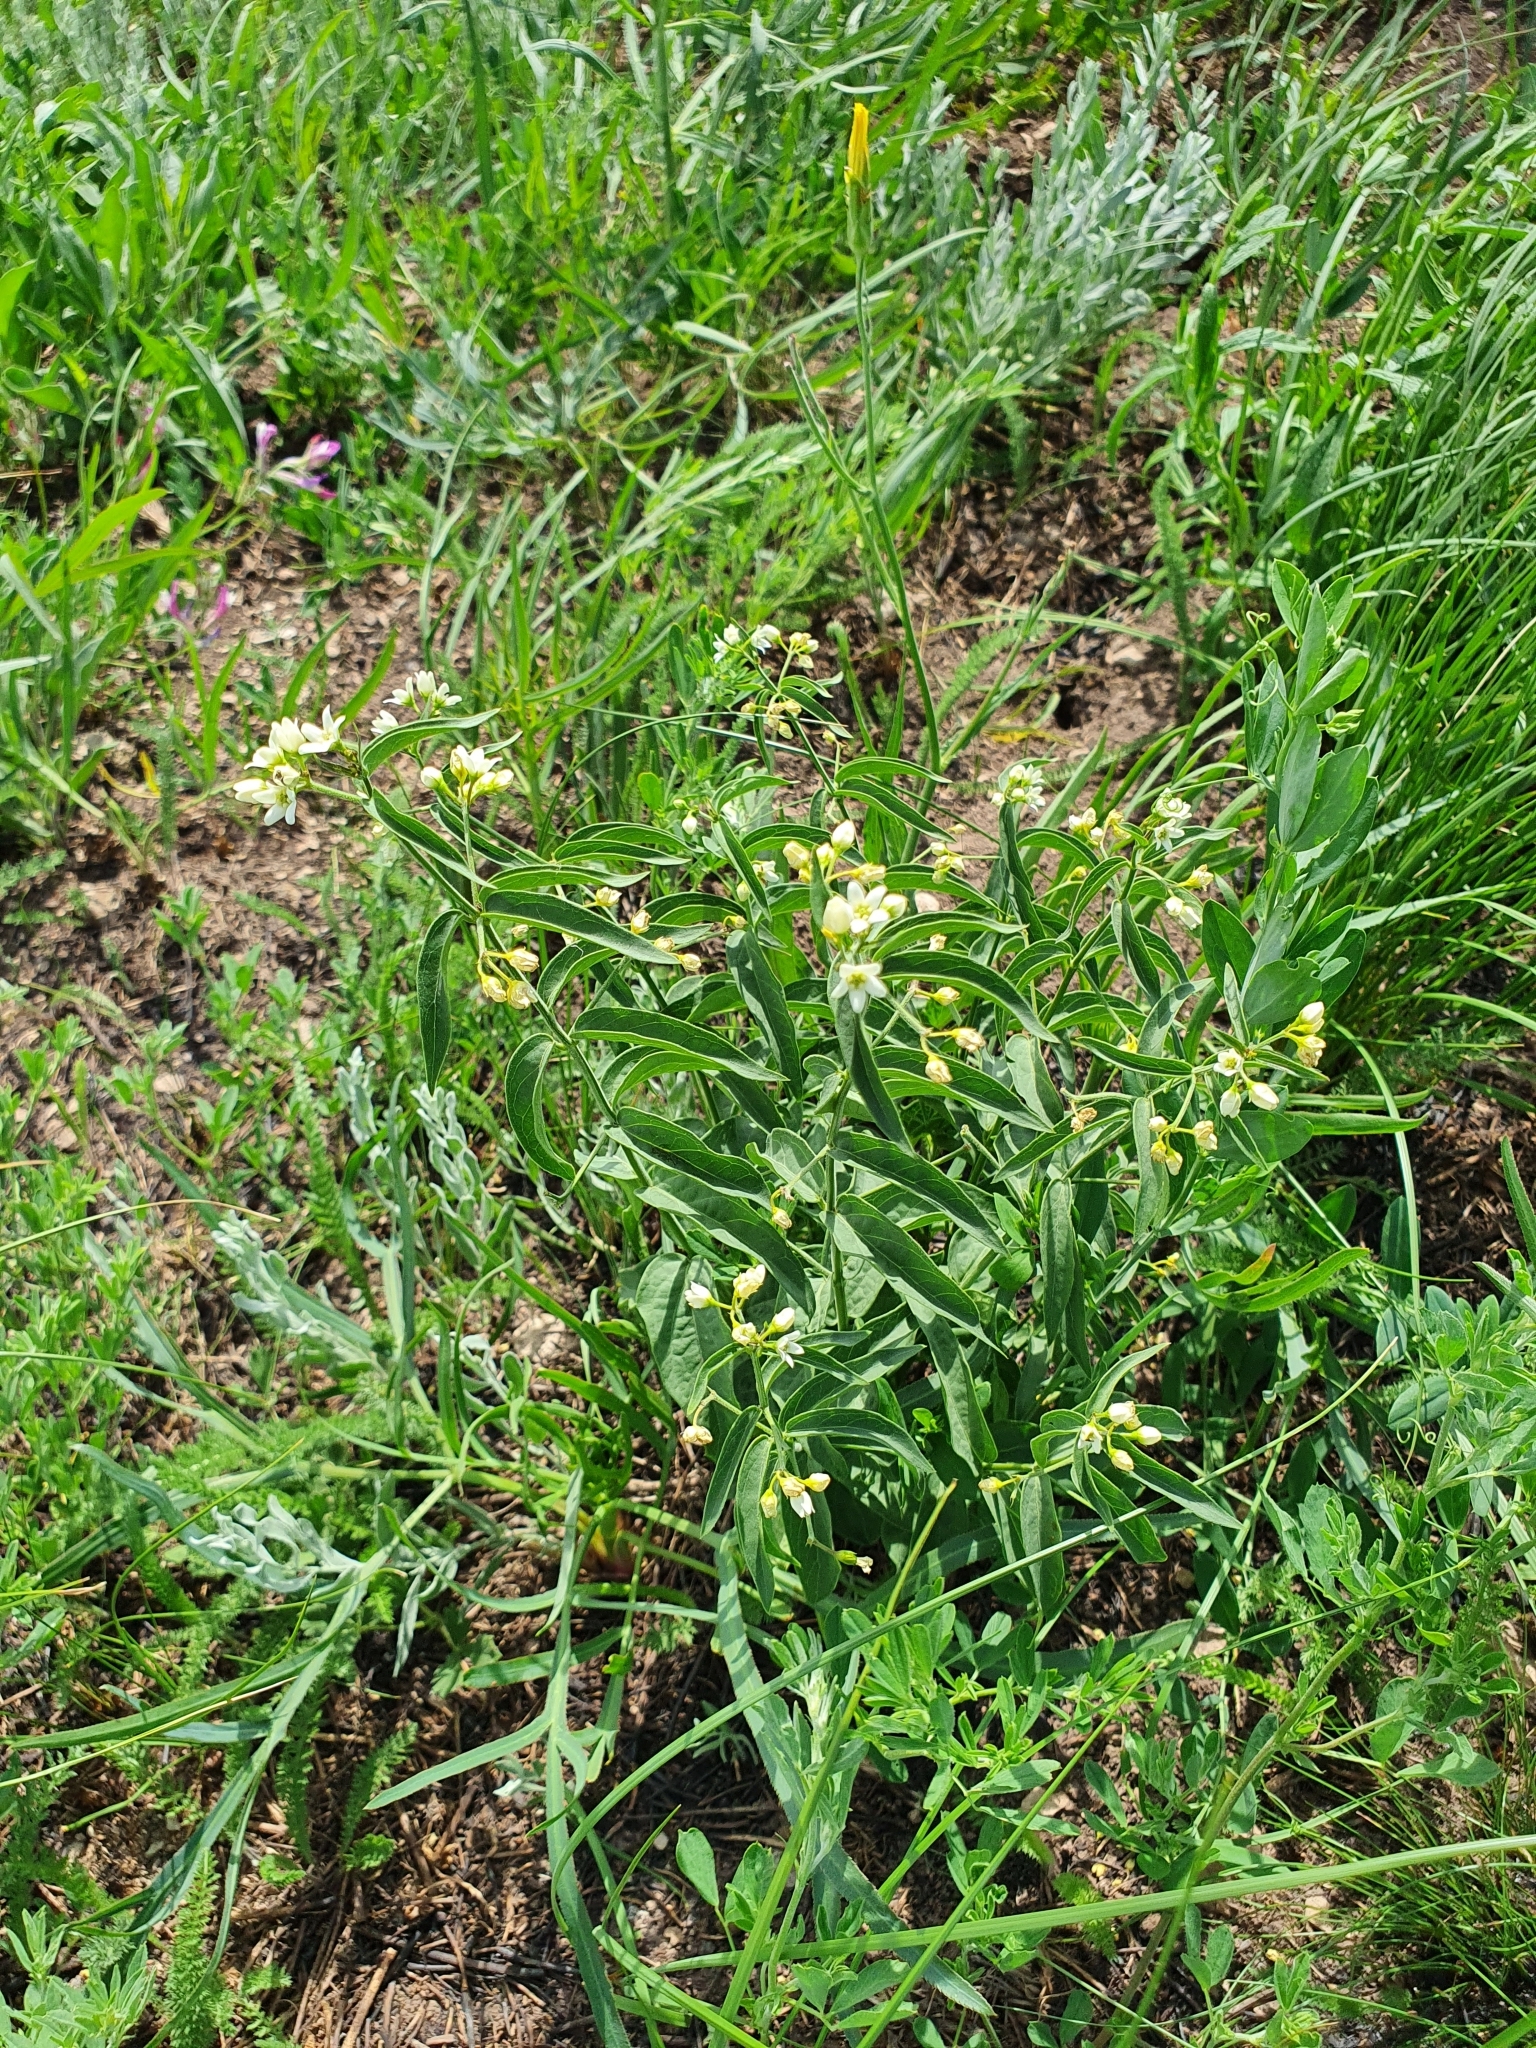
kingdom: Plantae
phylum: Tracheophyta
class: Magnoliopsida
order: Gentianales
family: Apocynaceae
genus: Vincetoxicum
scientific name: Vincetoxicum hirundinaria
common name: White swallowwort
